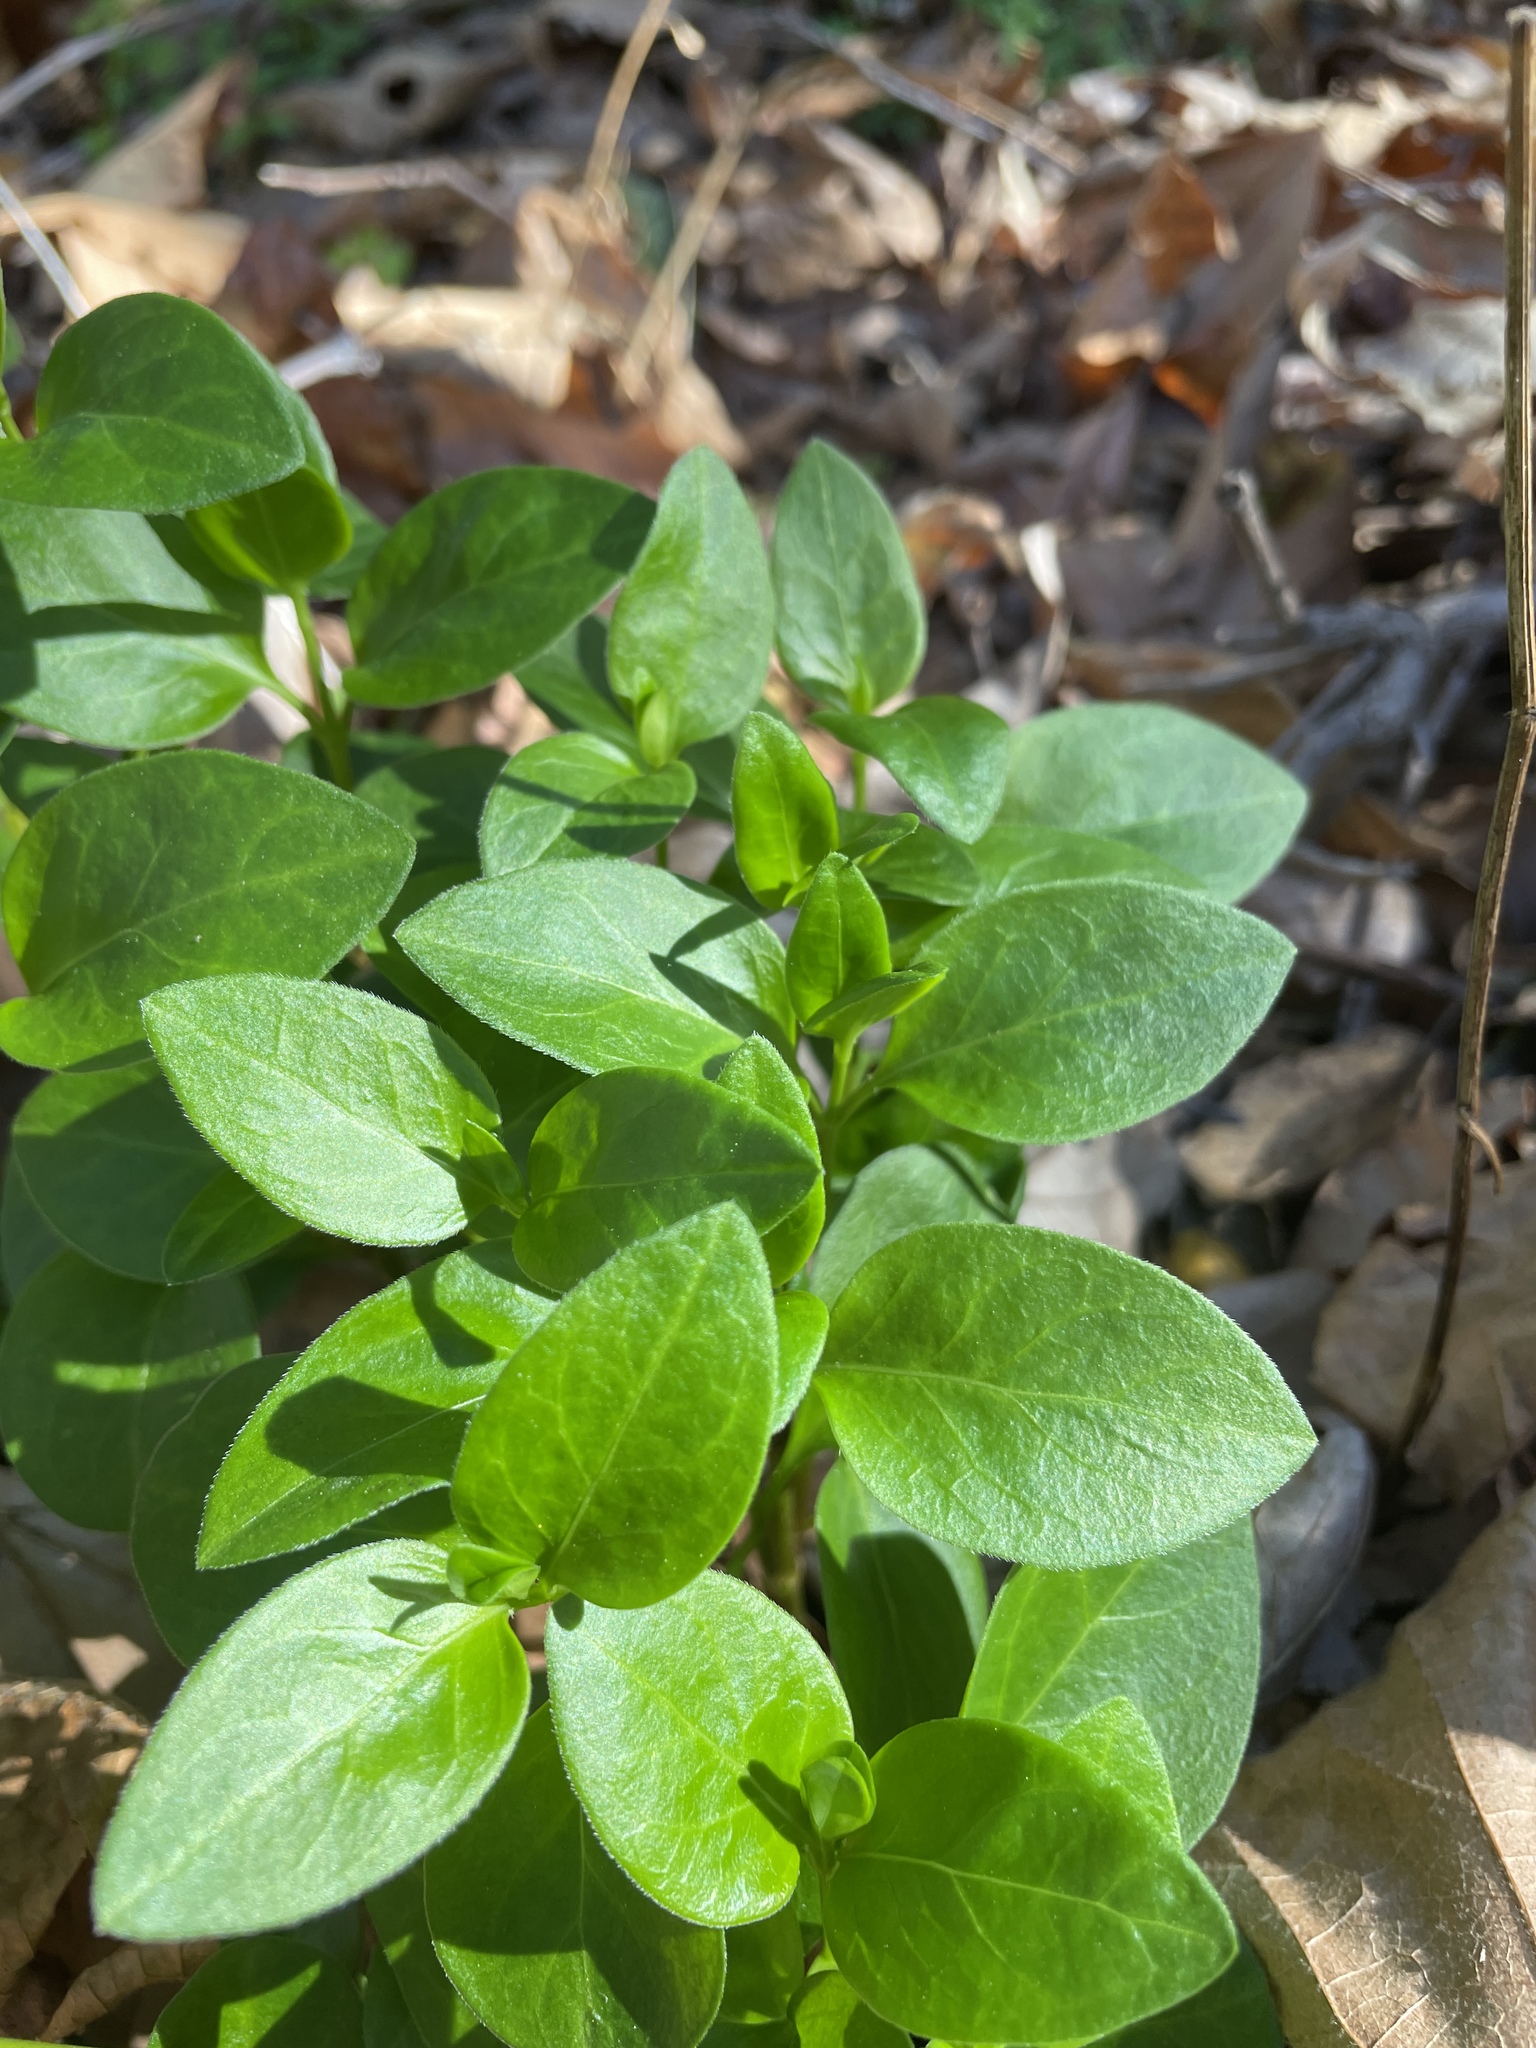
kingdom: Plantae
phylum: Tracheophyta
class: Magnoliopsida
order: Gentianales
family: Apocynaceae
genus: Vinca
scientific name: Vinca major
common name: Greater periwinkle
